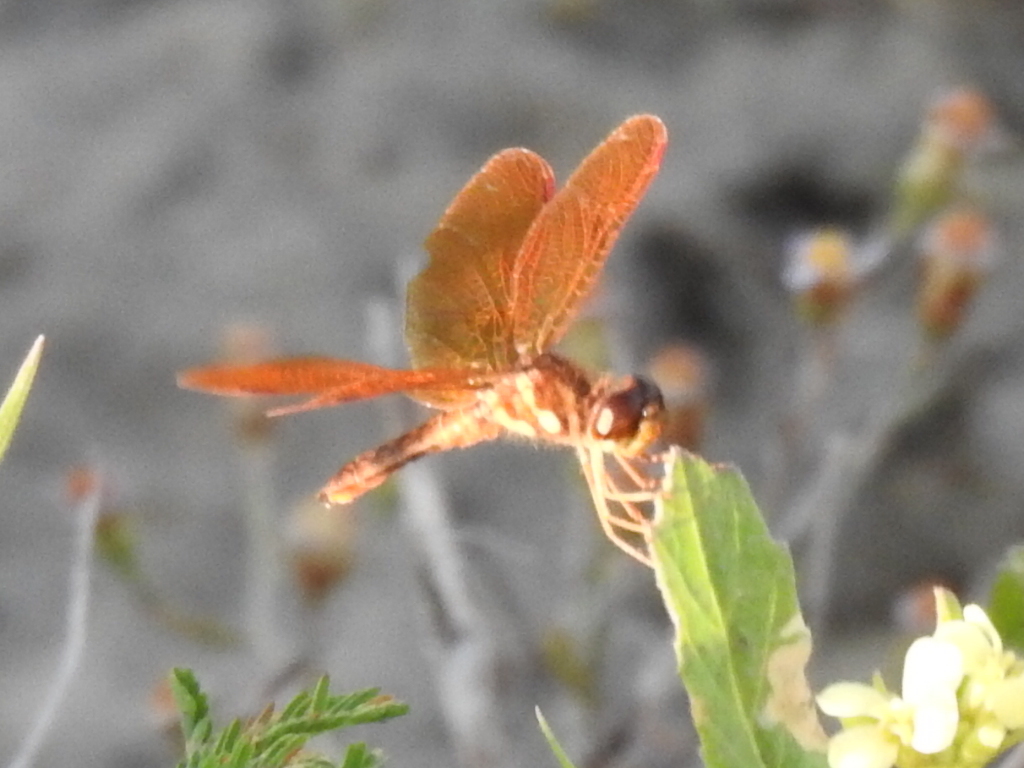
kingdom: Animalia
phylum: Arthropoda
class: Insecta
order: Odonata
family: Libellulidae
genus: Perithemis
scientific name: Perithemis tenera
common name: Eastern amberwing
